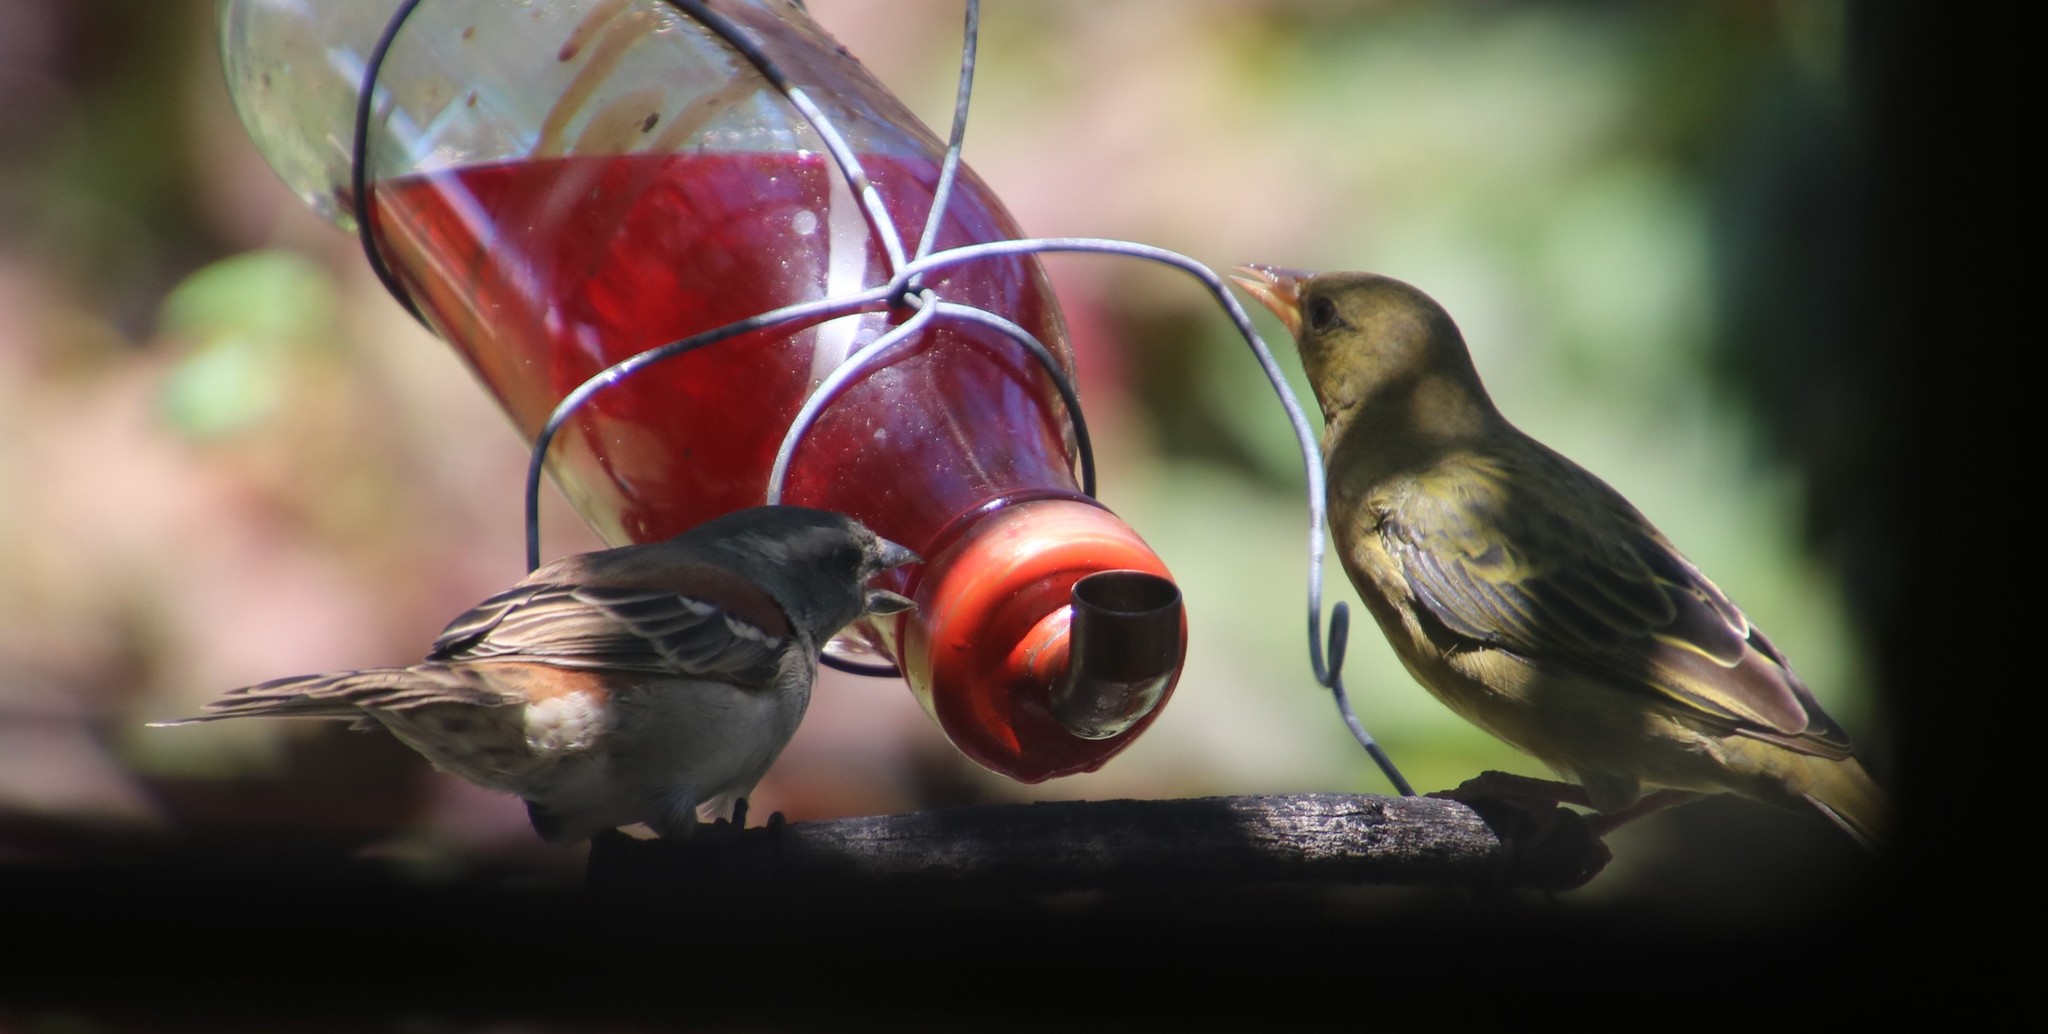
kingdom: Animalia
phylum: Chordata
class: Aves
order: Passeriformes
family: Passeridae
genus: Passer
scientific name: Passer melanurus
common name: Cape sparrow
